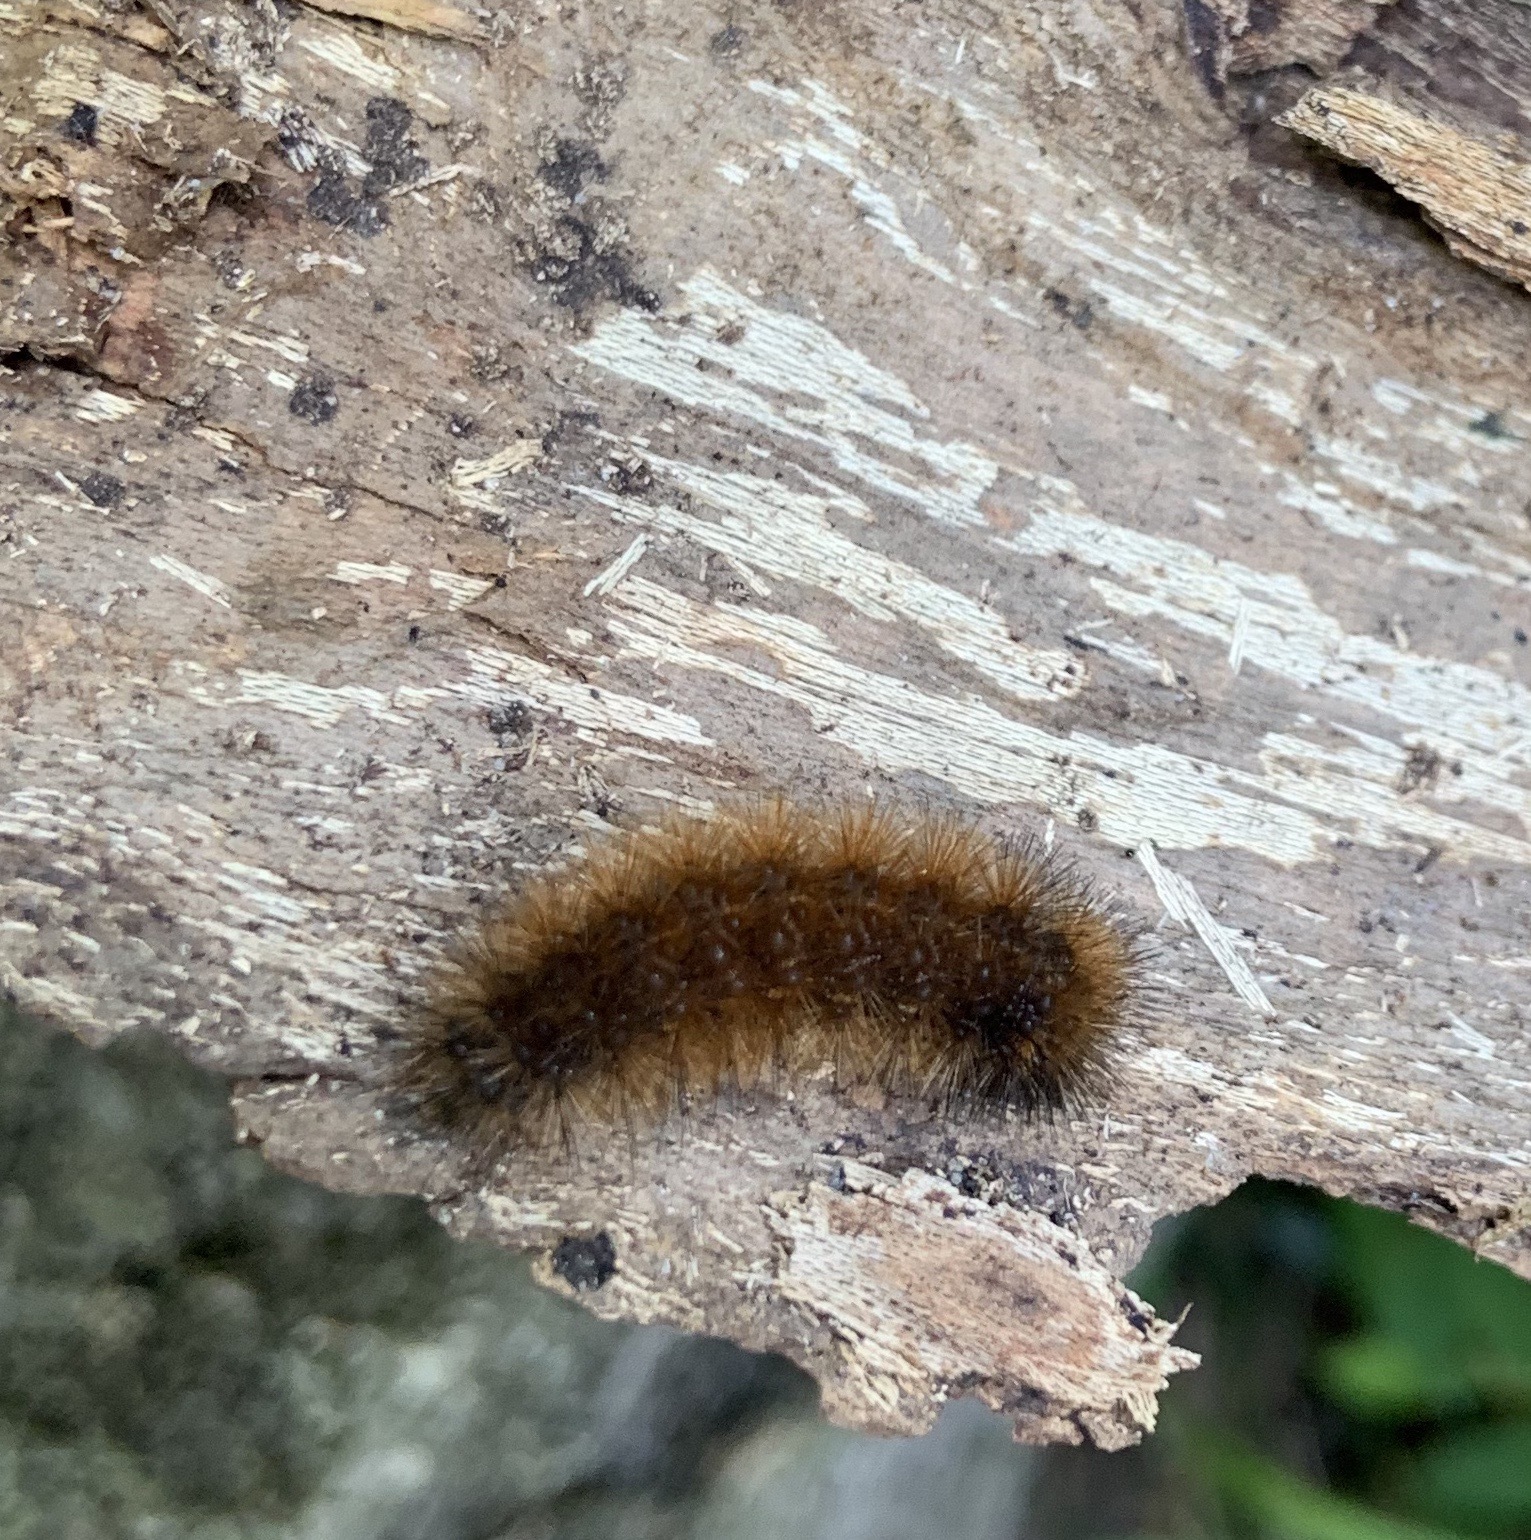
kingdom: Animalia
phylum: Arthropoda
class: Insecta
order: Lepidoptera
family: Erebidae
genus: Pyrrharctia
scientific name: Pyrrharctia isabella
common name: Isabella tiger moth
